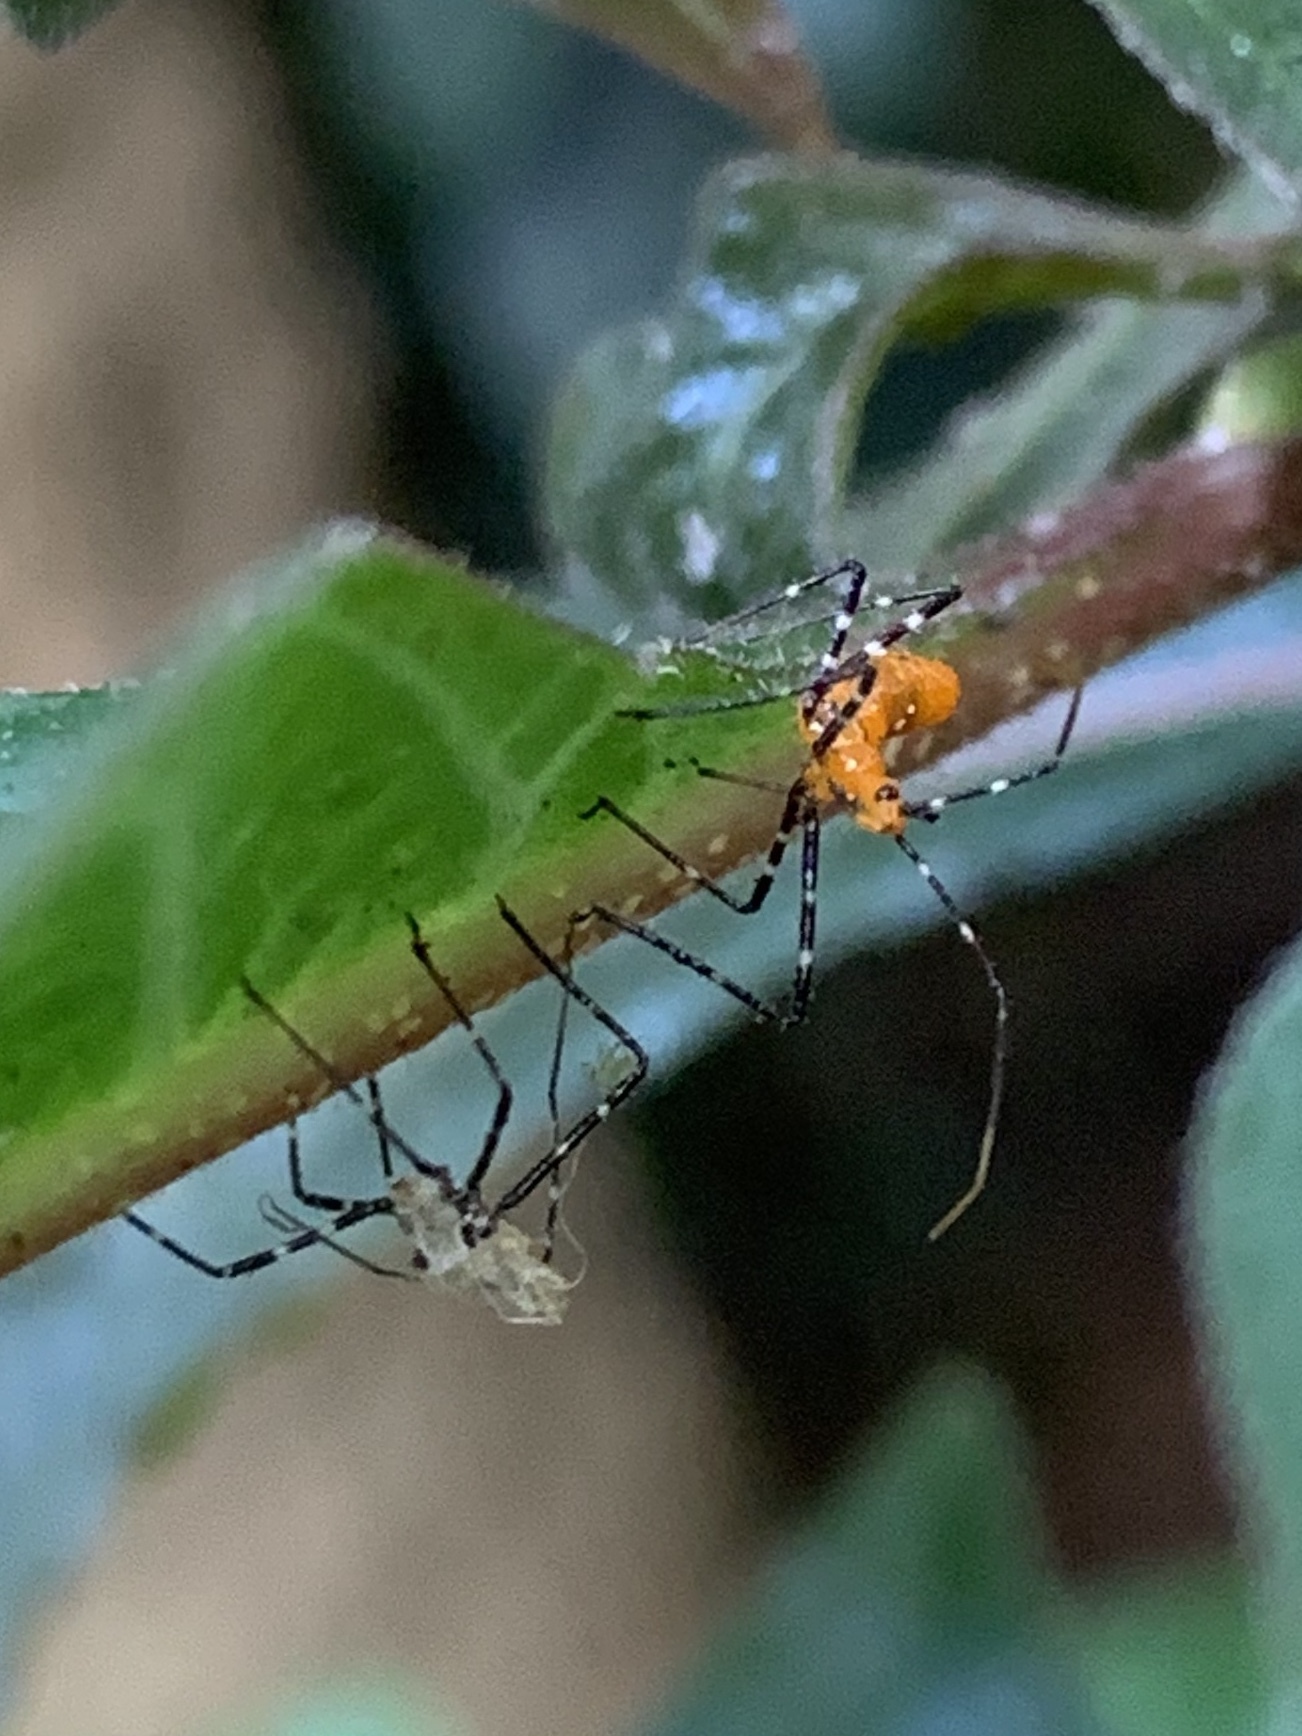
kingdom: Animalia
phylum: Arthropoda
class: Insecta
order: Hemiptera
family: Reduviidae
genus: Zelus
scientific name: Zelus longipes
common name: Milkweed assassin bug
